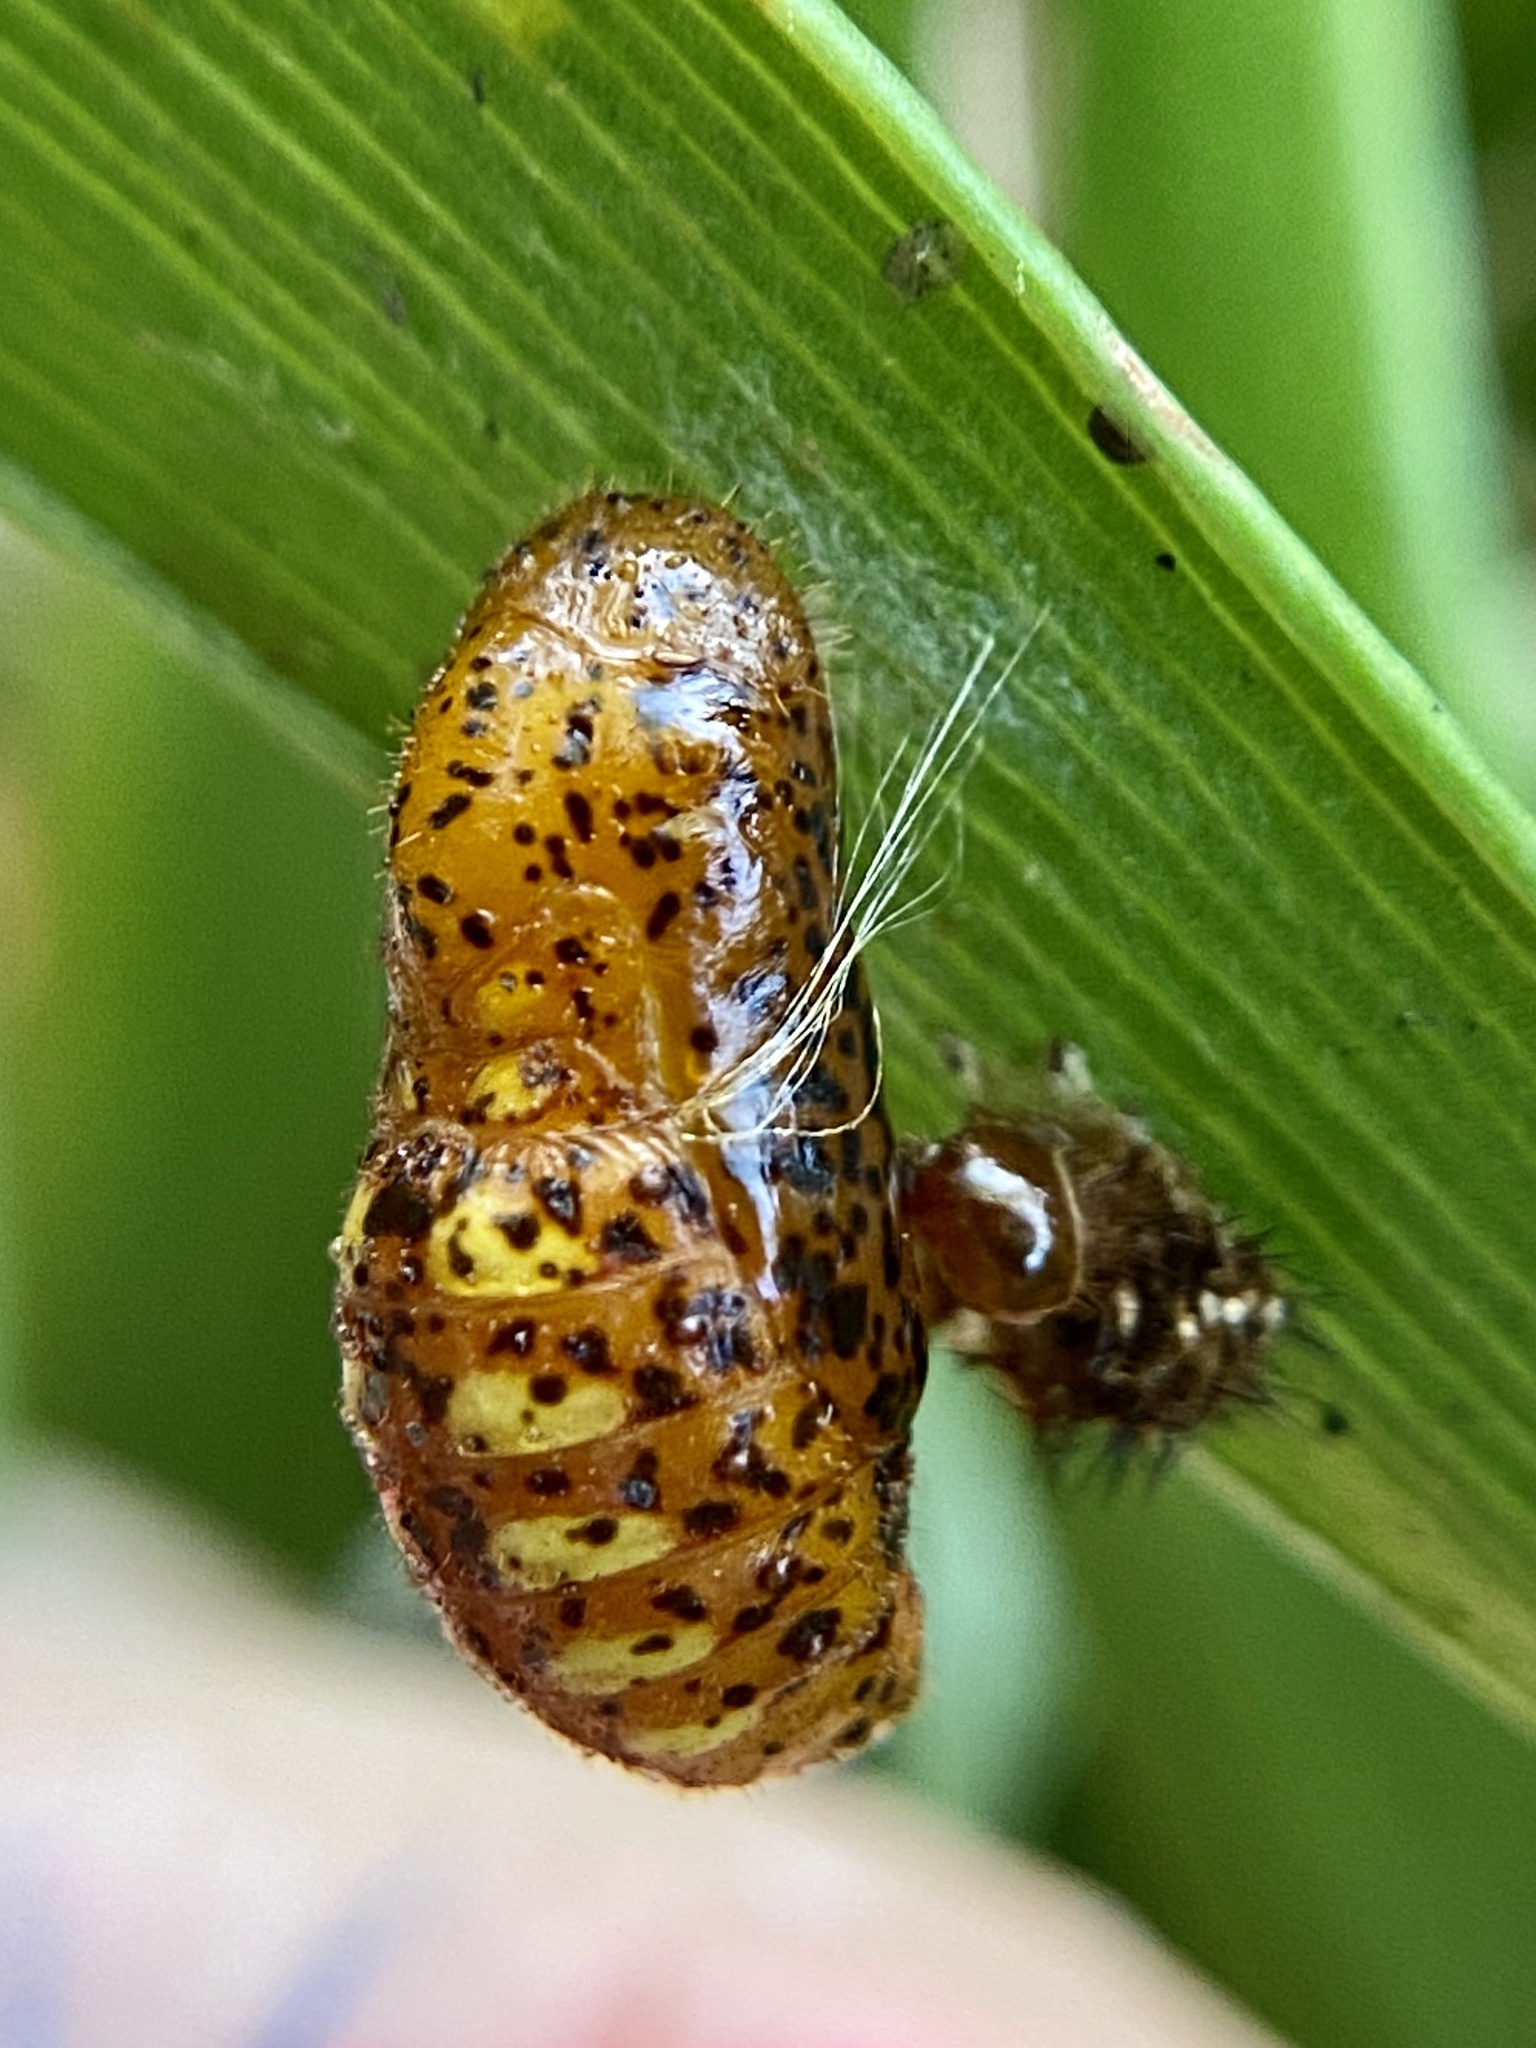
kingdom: Animalia
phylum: Arthropoda
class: Insecta
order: Lepidoptera
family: Lycaenidae
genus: Eumaeus
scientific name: Eumaeus atala
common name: Atala
